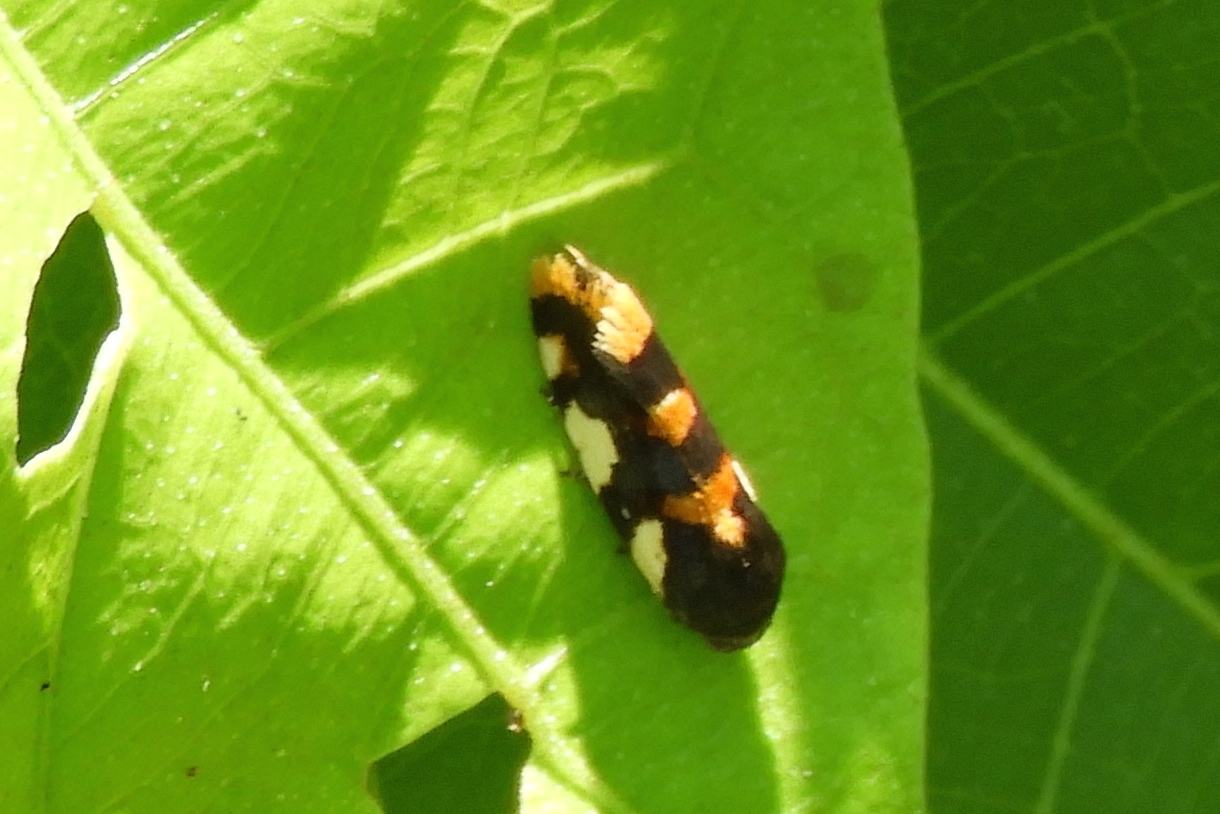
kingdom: Animalia
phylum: Arthropoda
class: Insecta
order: Lepidoptera
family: Noctuidae
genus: Acontia
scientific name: Acontia dama
